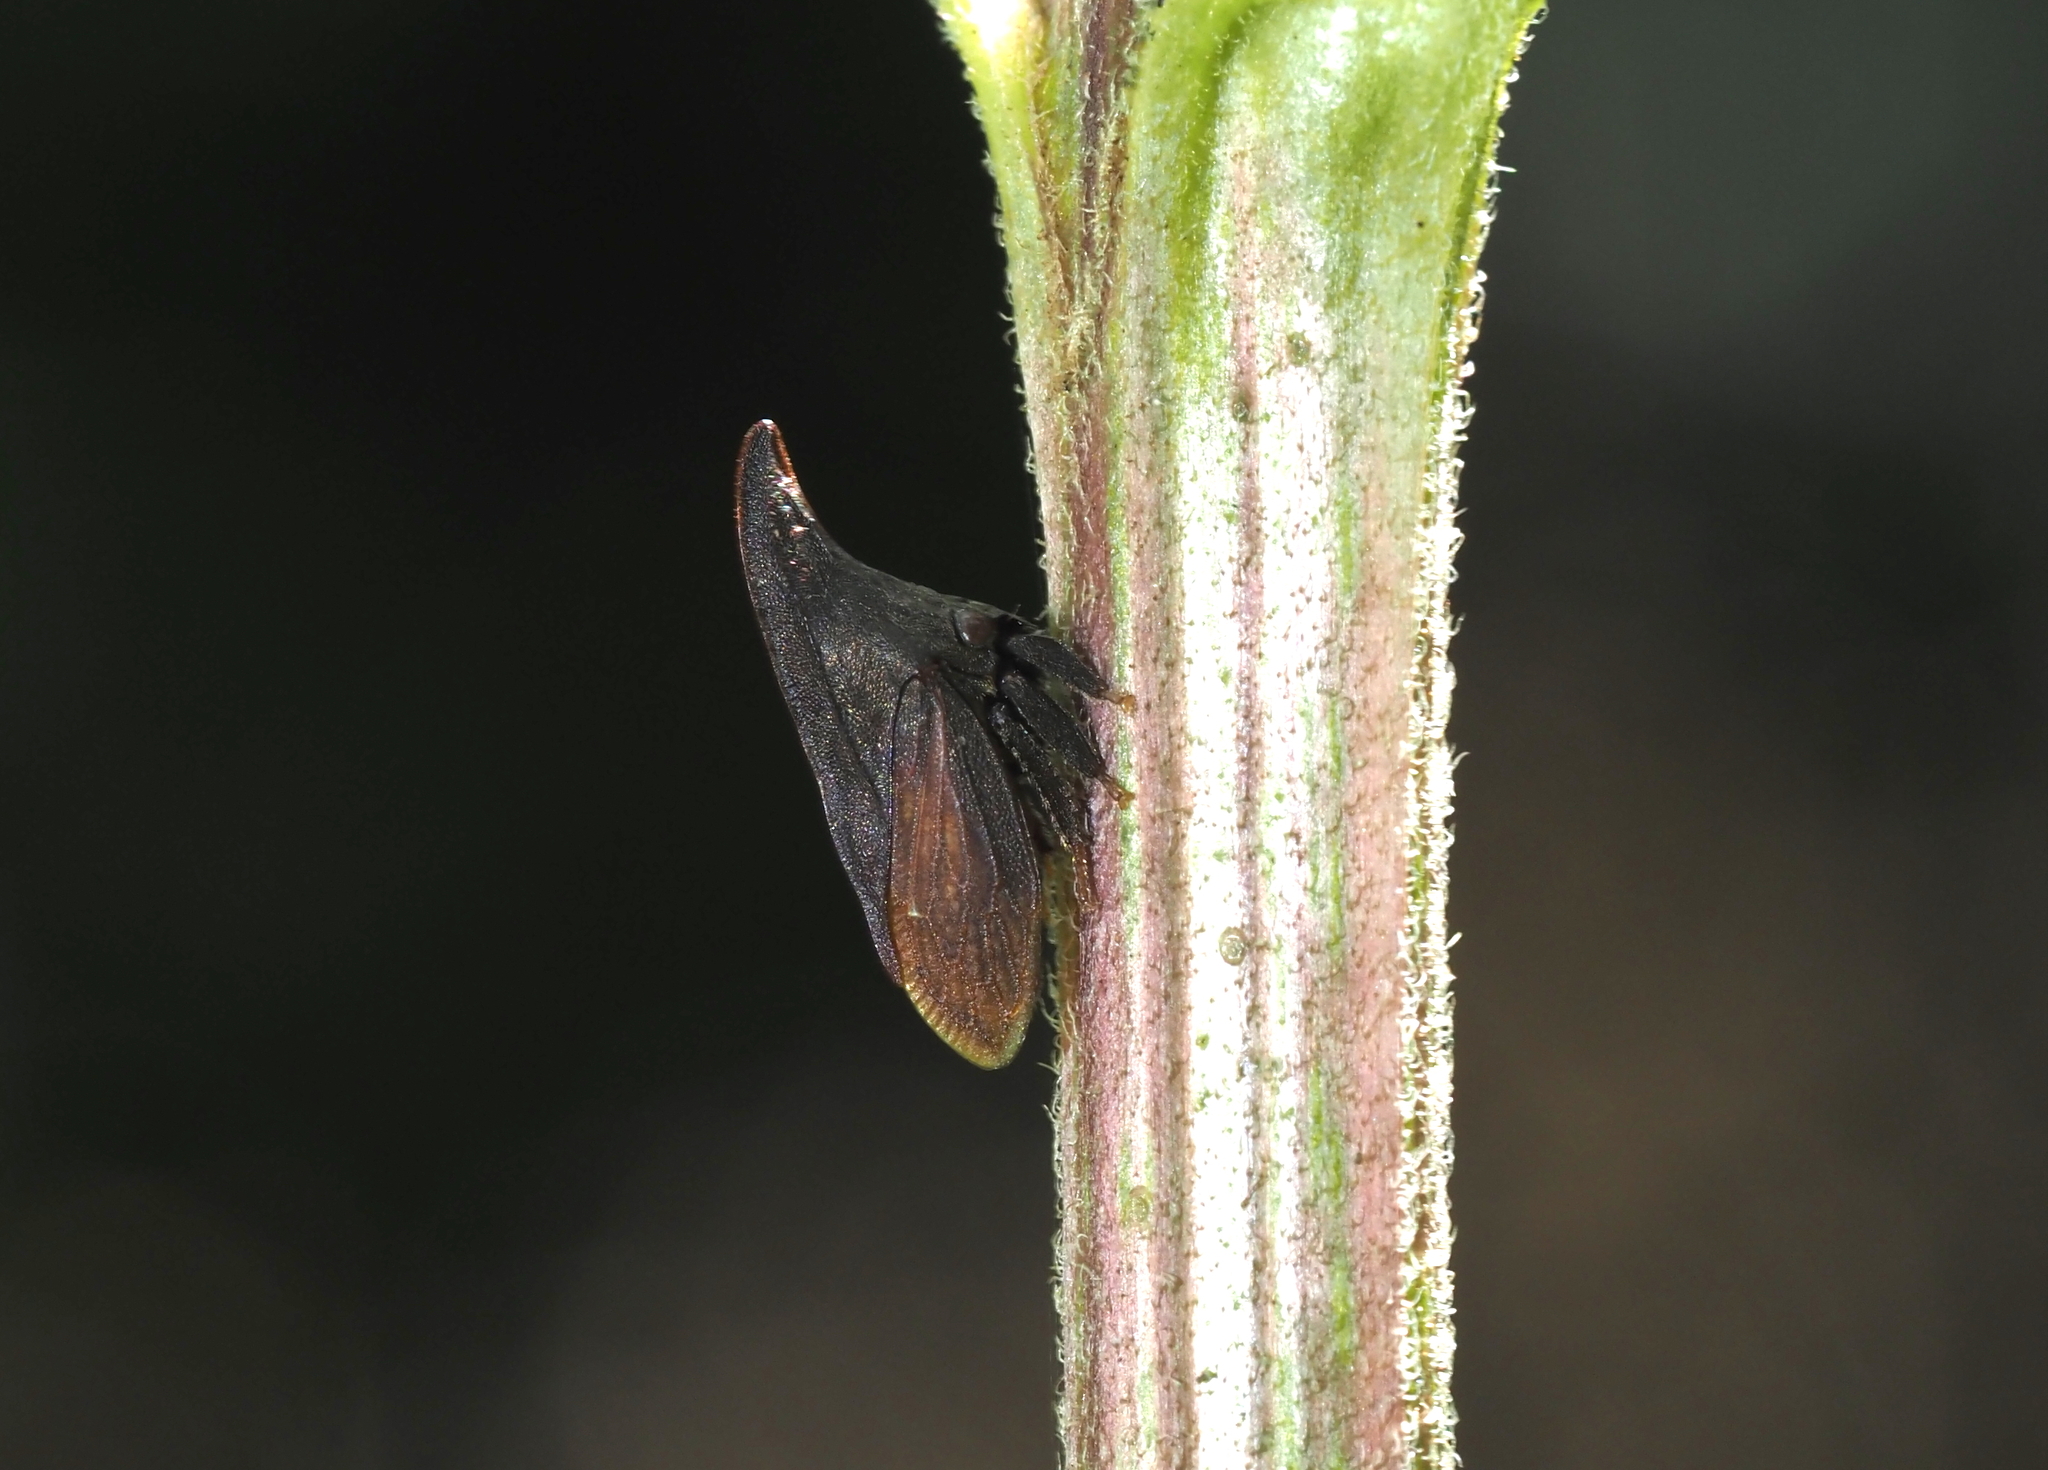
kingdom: Animalia
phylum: Arthropoda
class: Insecta
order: Hemiptera
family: Membracidae
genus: Enchenopa
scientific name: Enchenopa latipes
